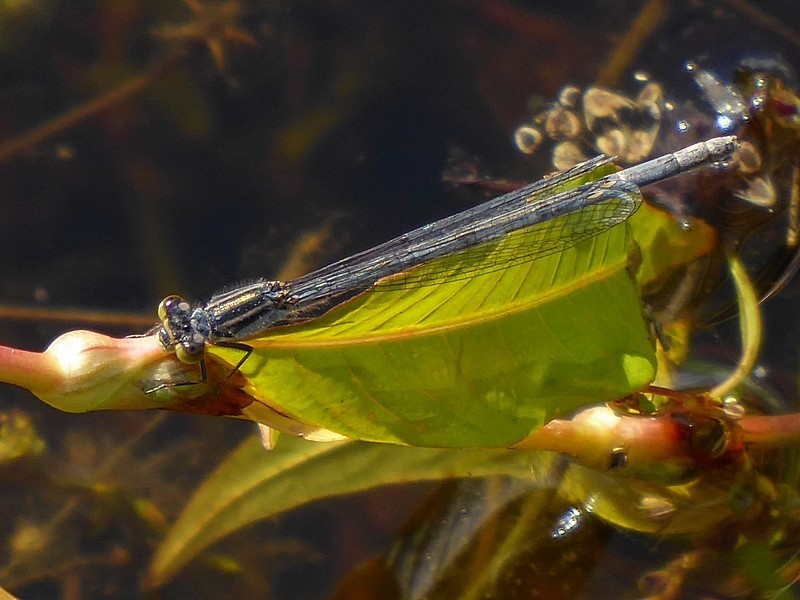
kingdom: Animalia
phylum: Arthropoda
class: Insecta
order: Odonata
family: Coenagrionidae
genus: Ischnura
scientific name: Ischnura heterosticta
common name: Common bluetail
